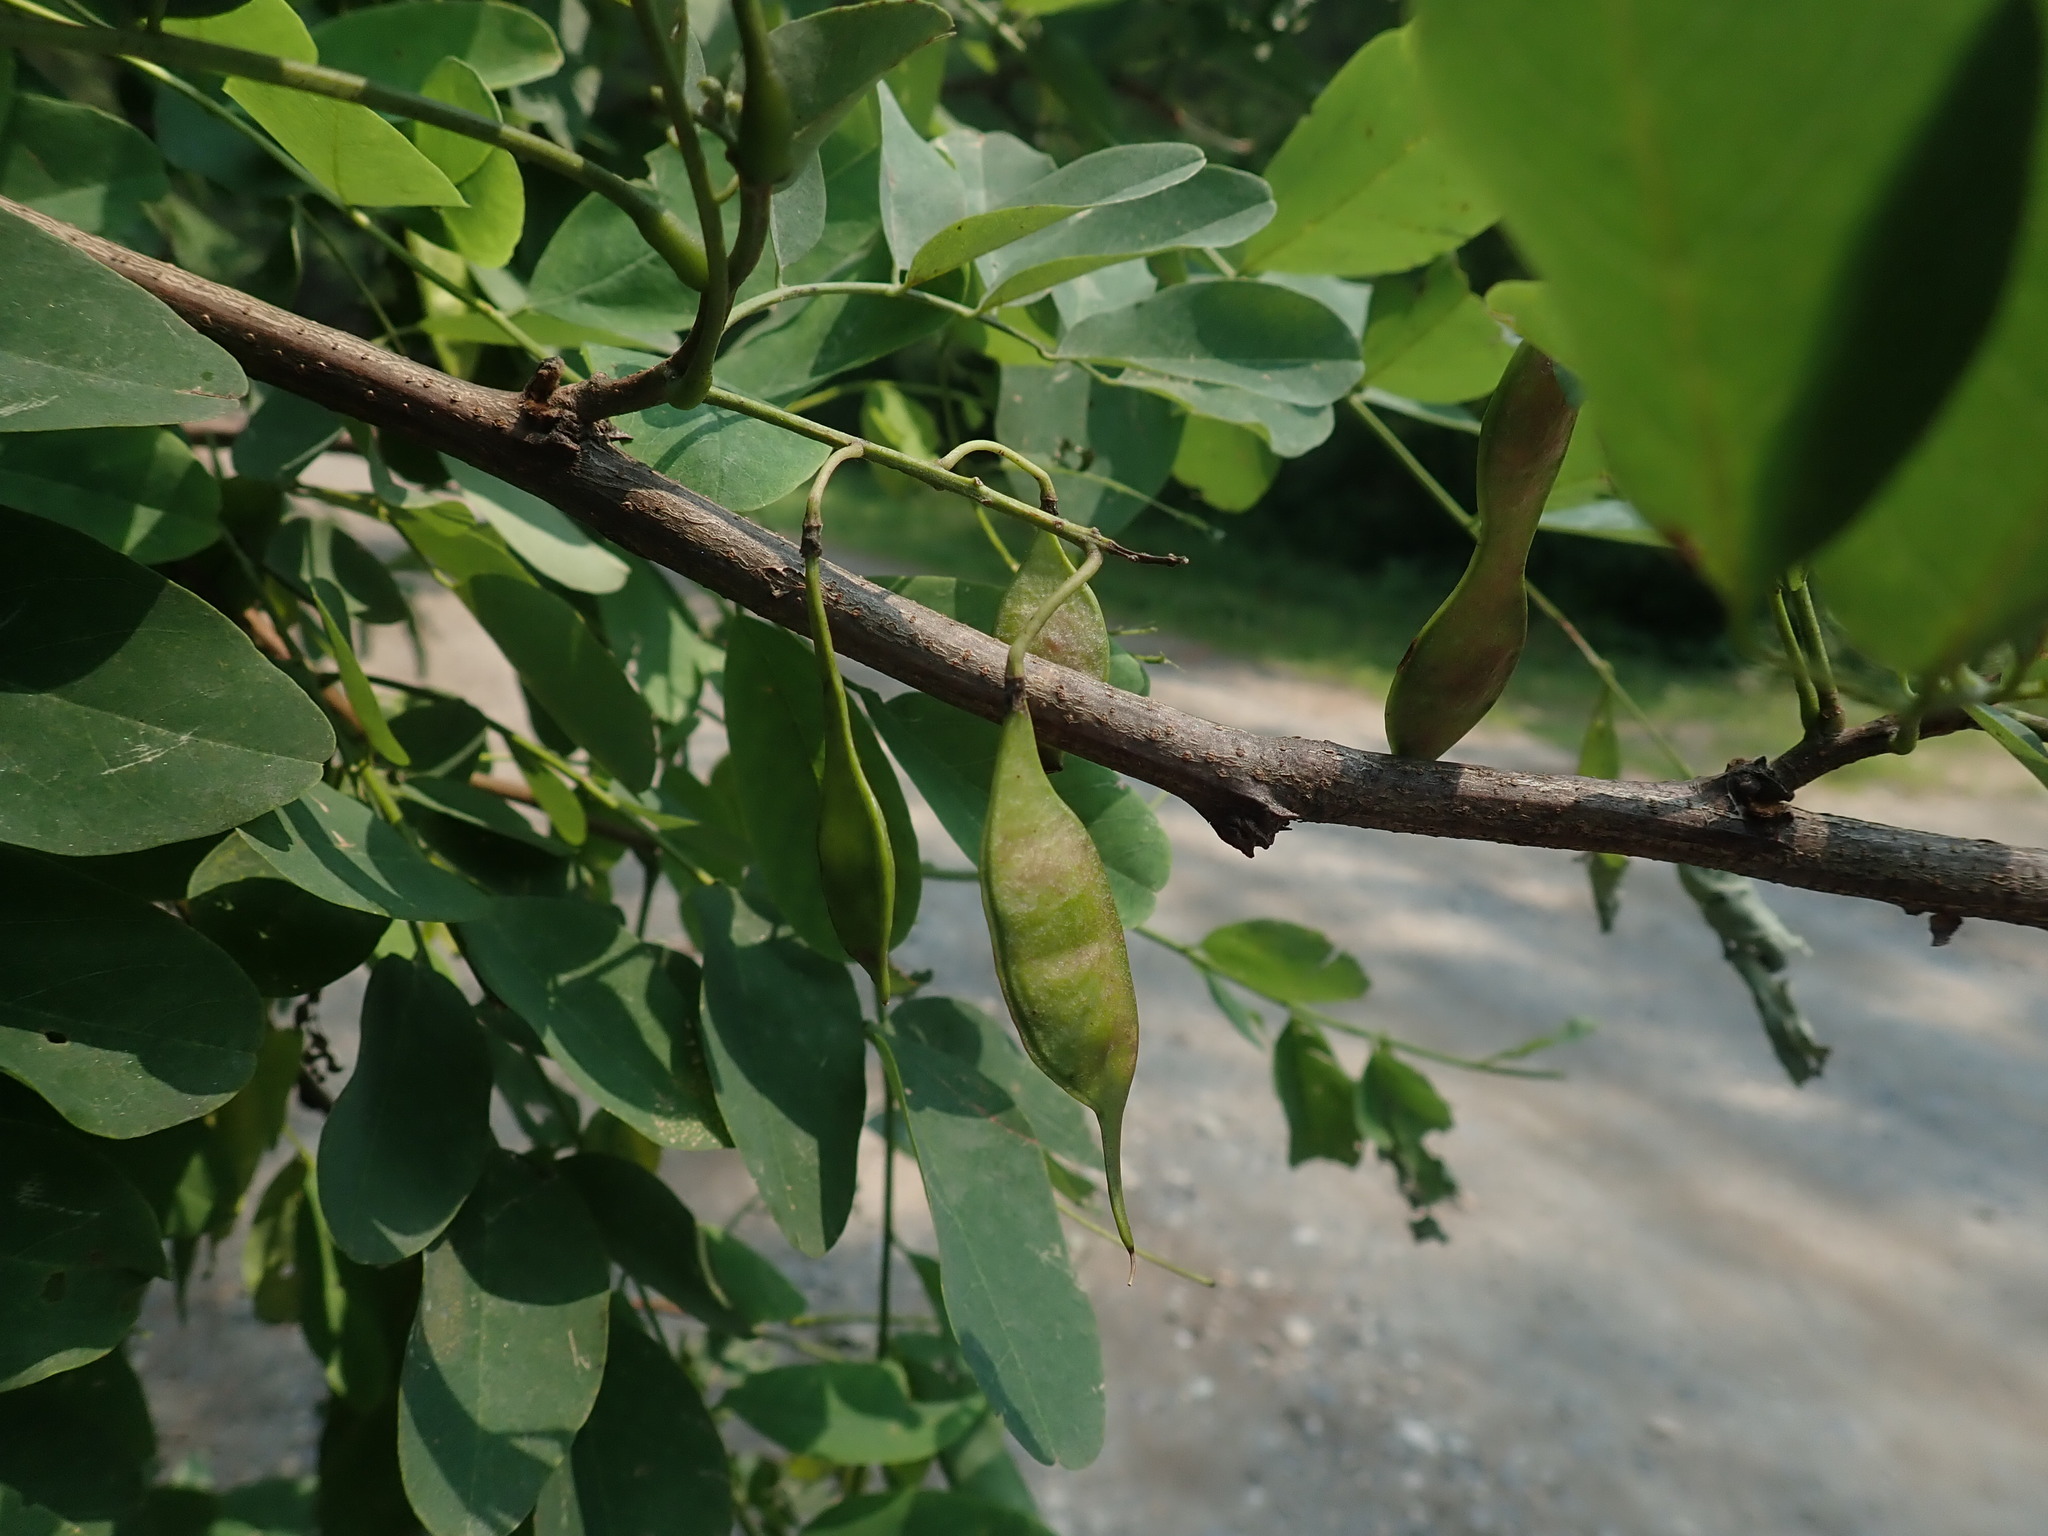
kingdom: Plantae
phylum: Tracheophyta
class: Magnoliopsida
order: Fabales
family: Fabaceae
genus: Robinia
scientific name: Robinia pseudoacacia
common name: Black locust
